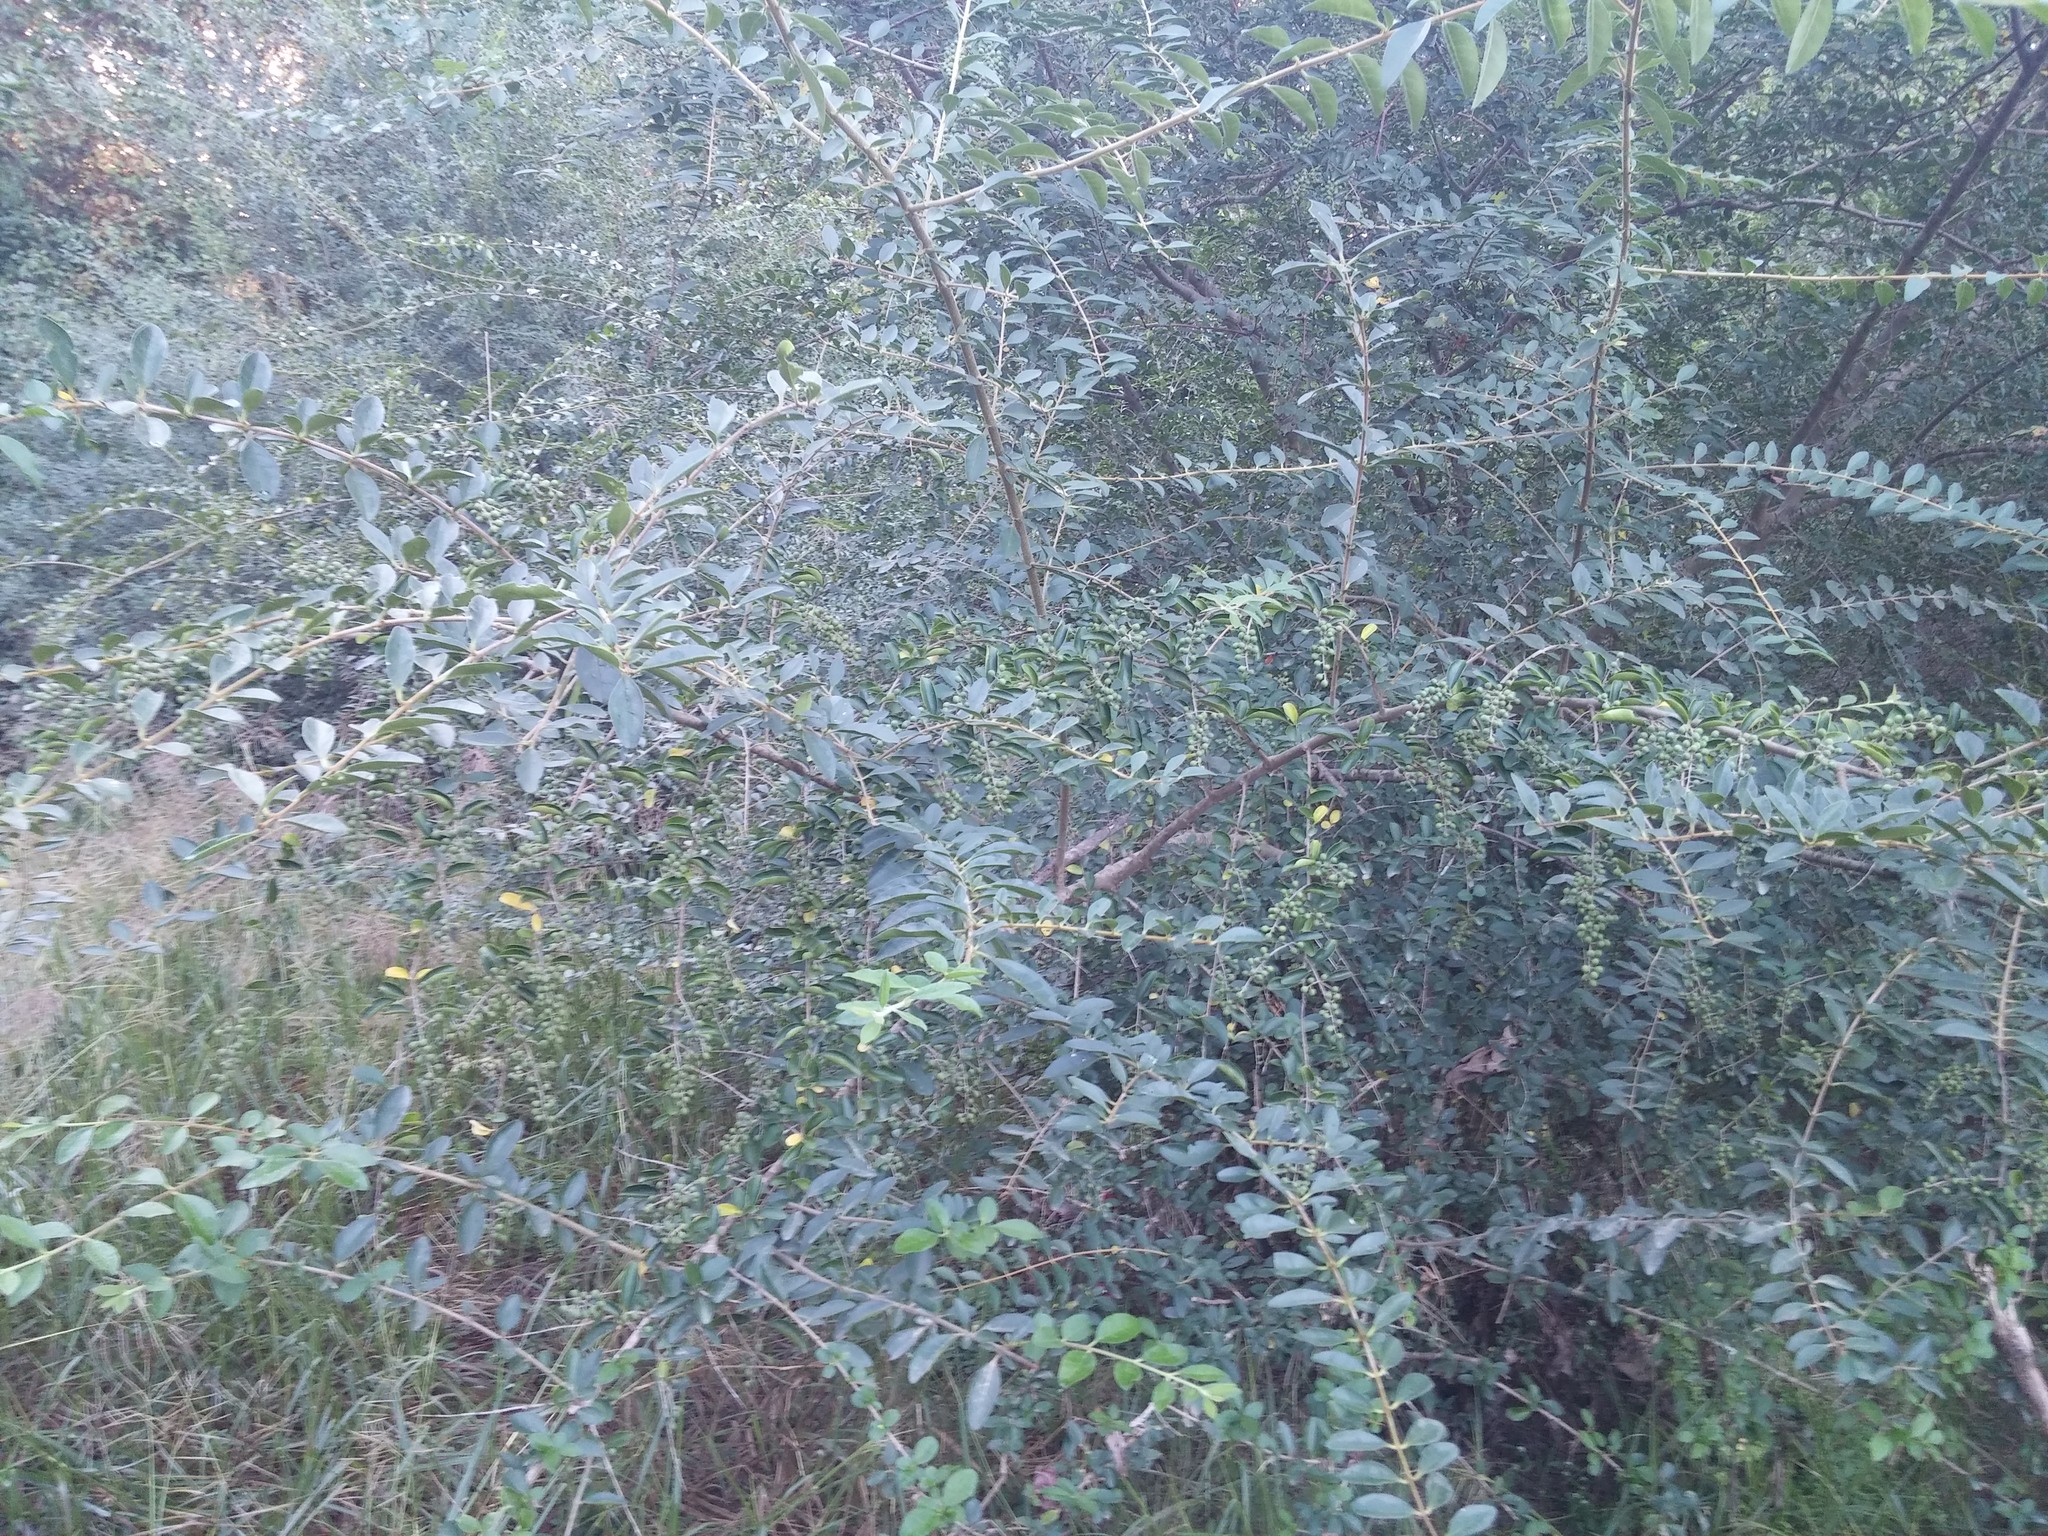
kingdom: Plantae
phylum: Tracheophyta
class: Magnoliopsida
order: Lamiales
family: Oleaceae
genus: Ligustrum
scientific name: Ligustrum sinense
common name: Chinese privet
